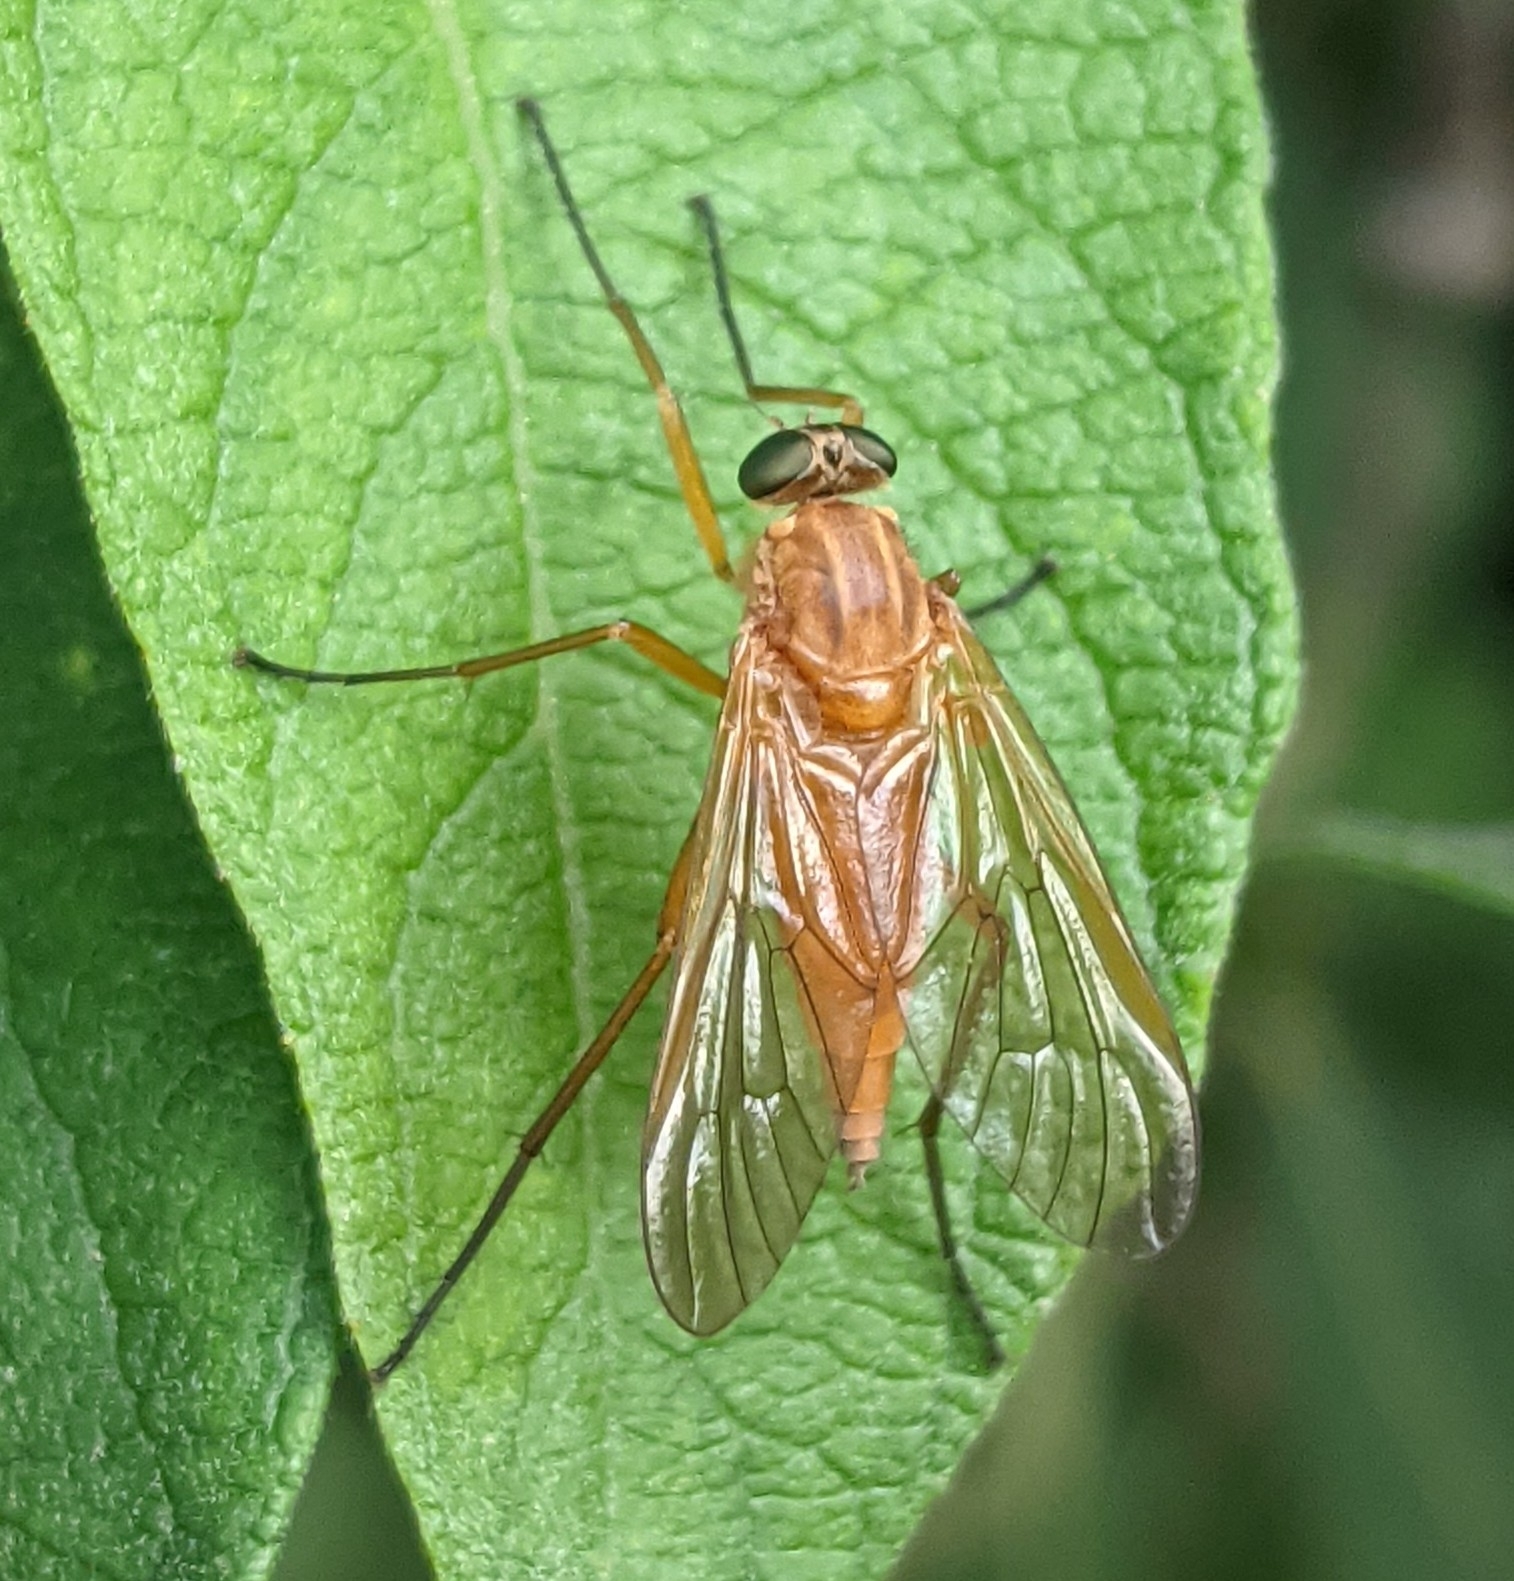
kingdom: Animalia
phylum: Arthropoda
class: Insecta
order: Diptera
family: Rhagionidae
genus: Rhagio
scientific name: Rhagio tringaria
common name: Marsh snipefly
